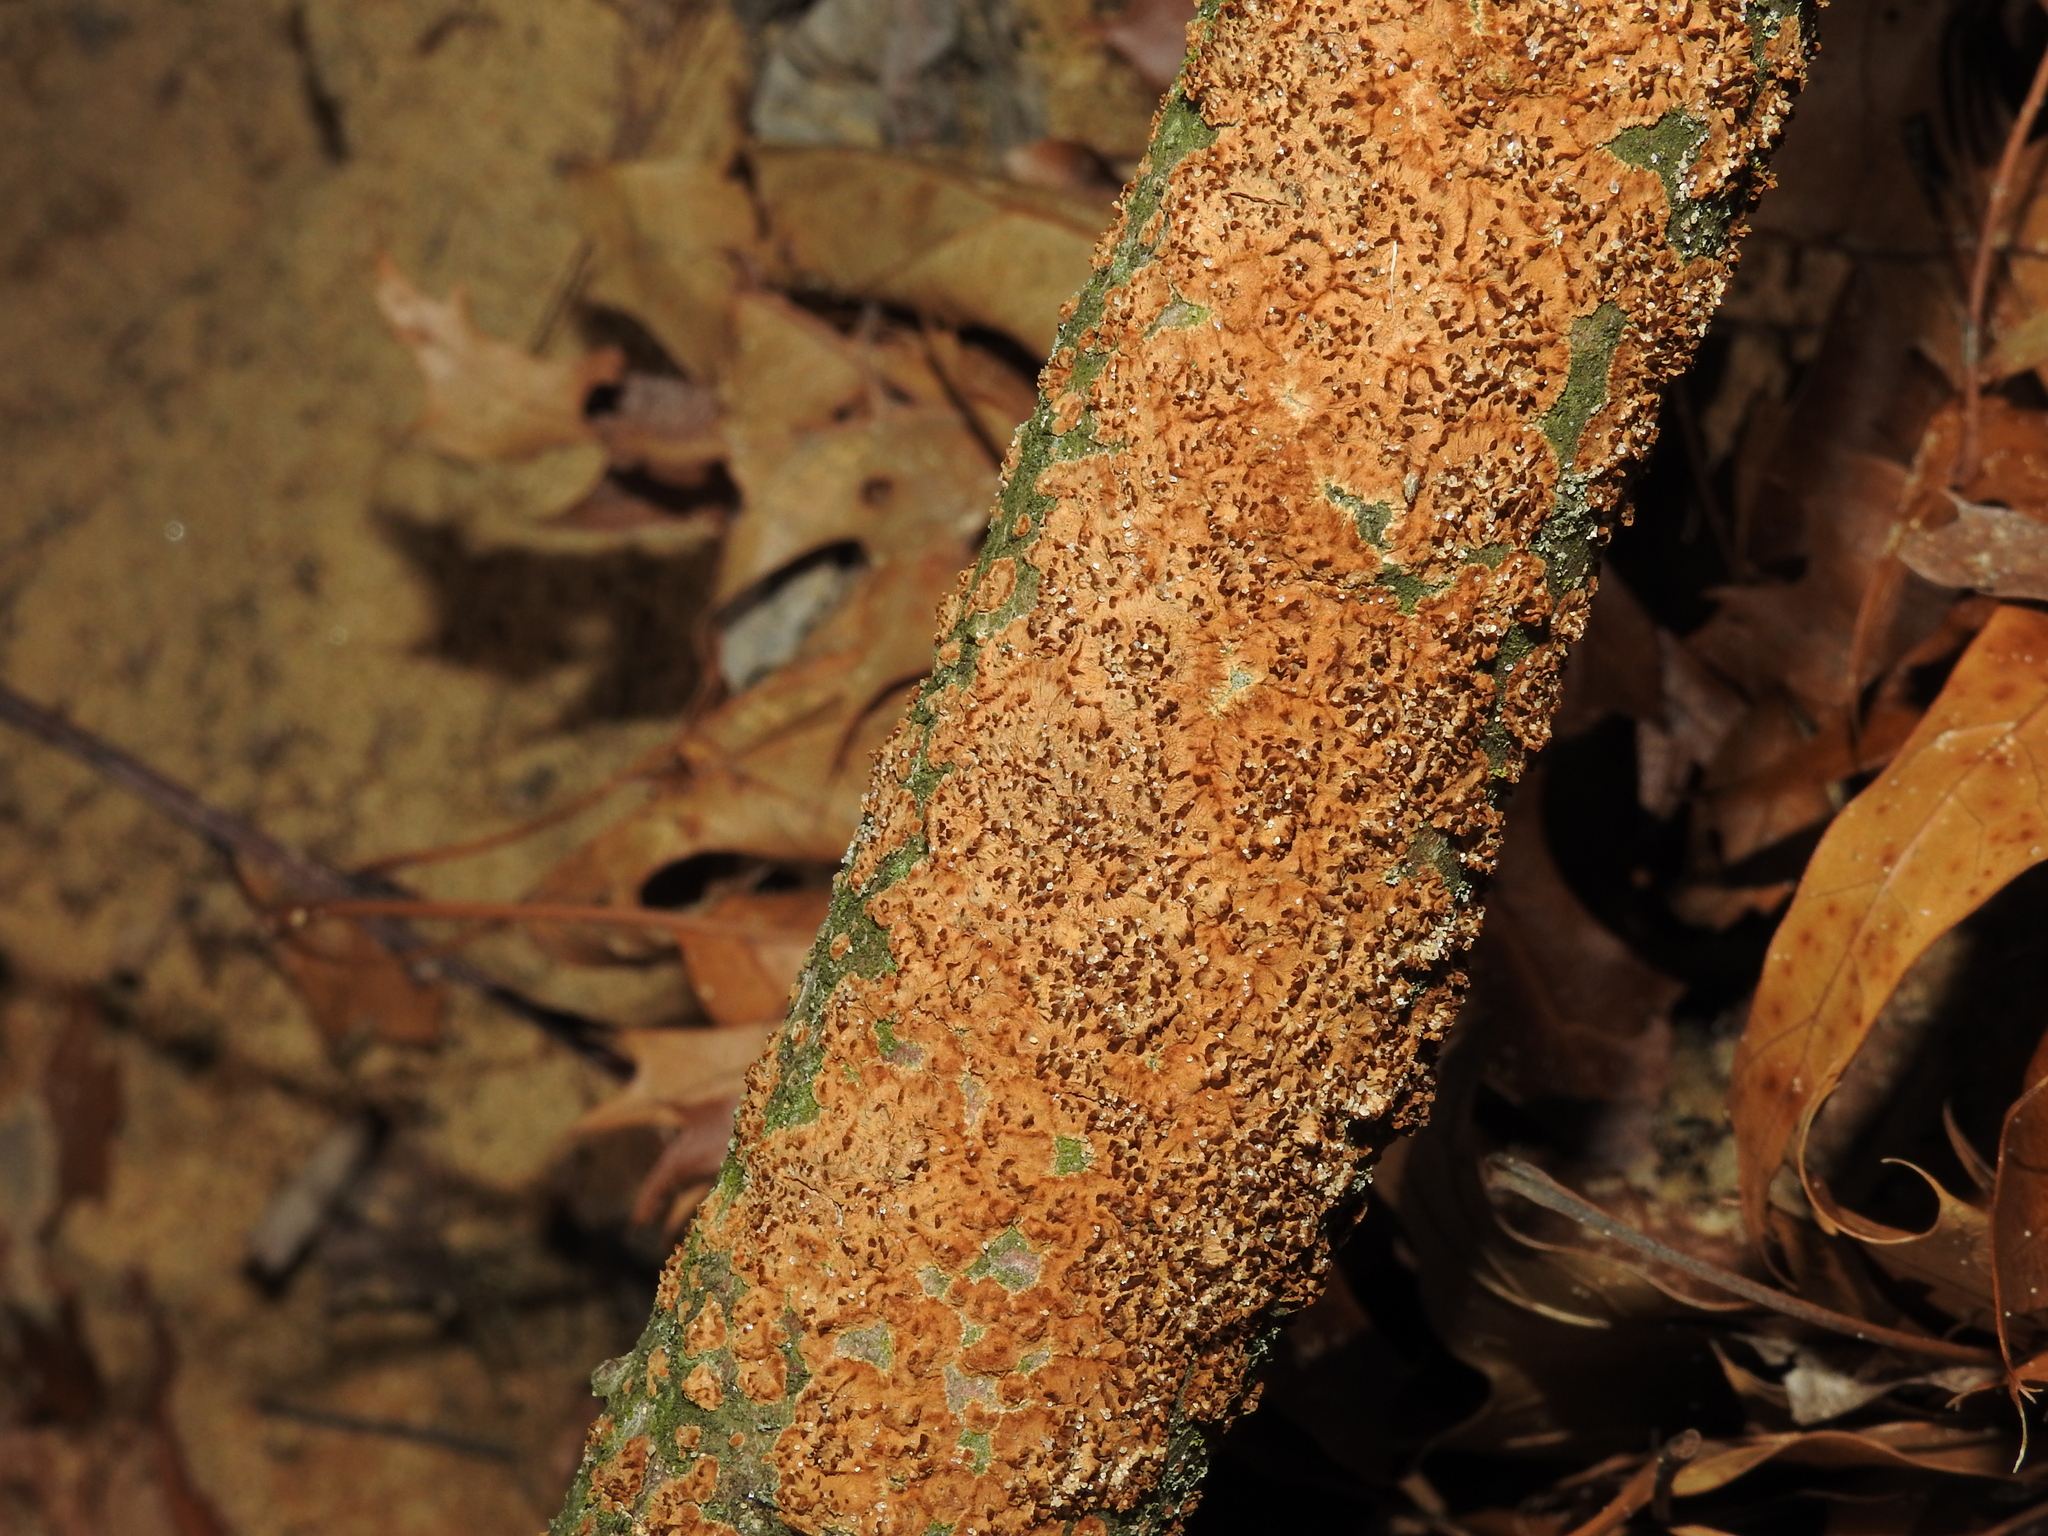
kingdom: Fungi
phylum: Basidiomycota
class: Agaricomycetes
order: Hymenochaetales
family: Hymenochaetaceae
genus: Hydnoporia
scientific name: Hydnoporia olivacea
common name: Brown-toothed crust fungus
